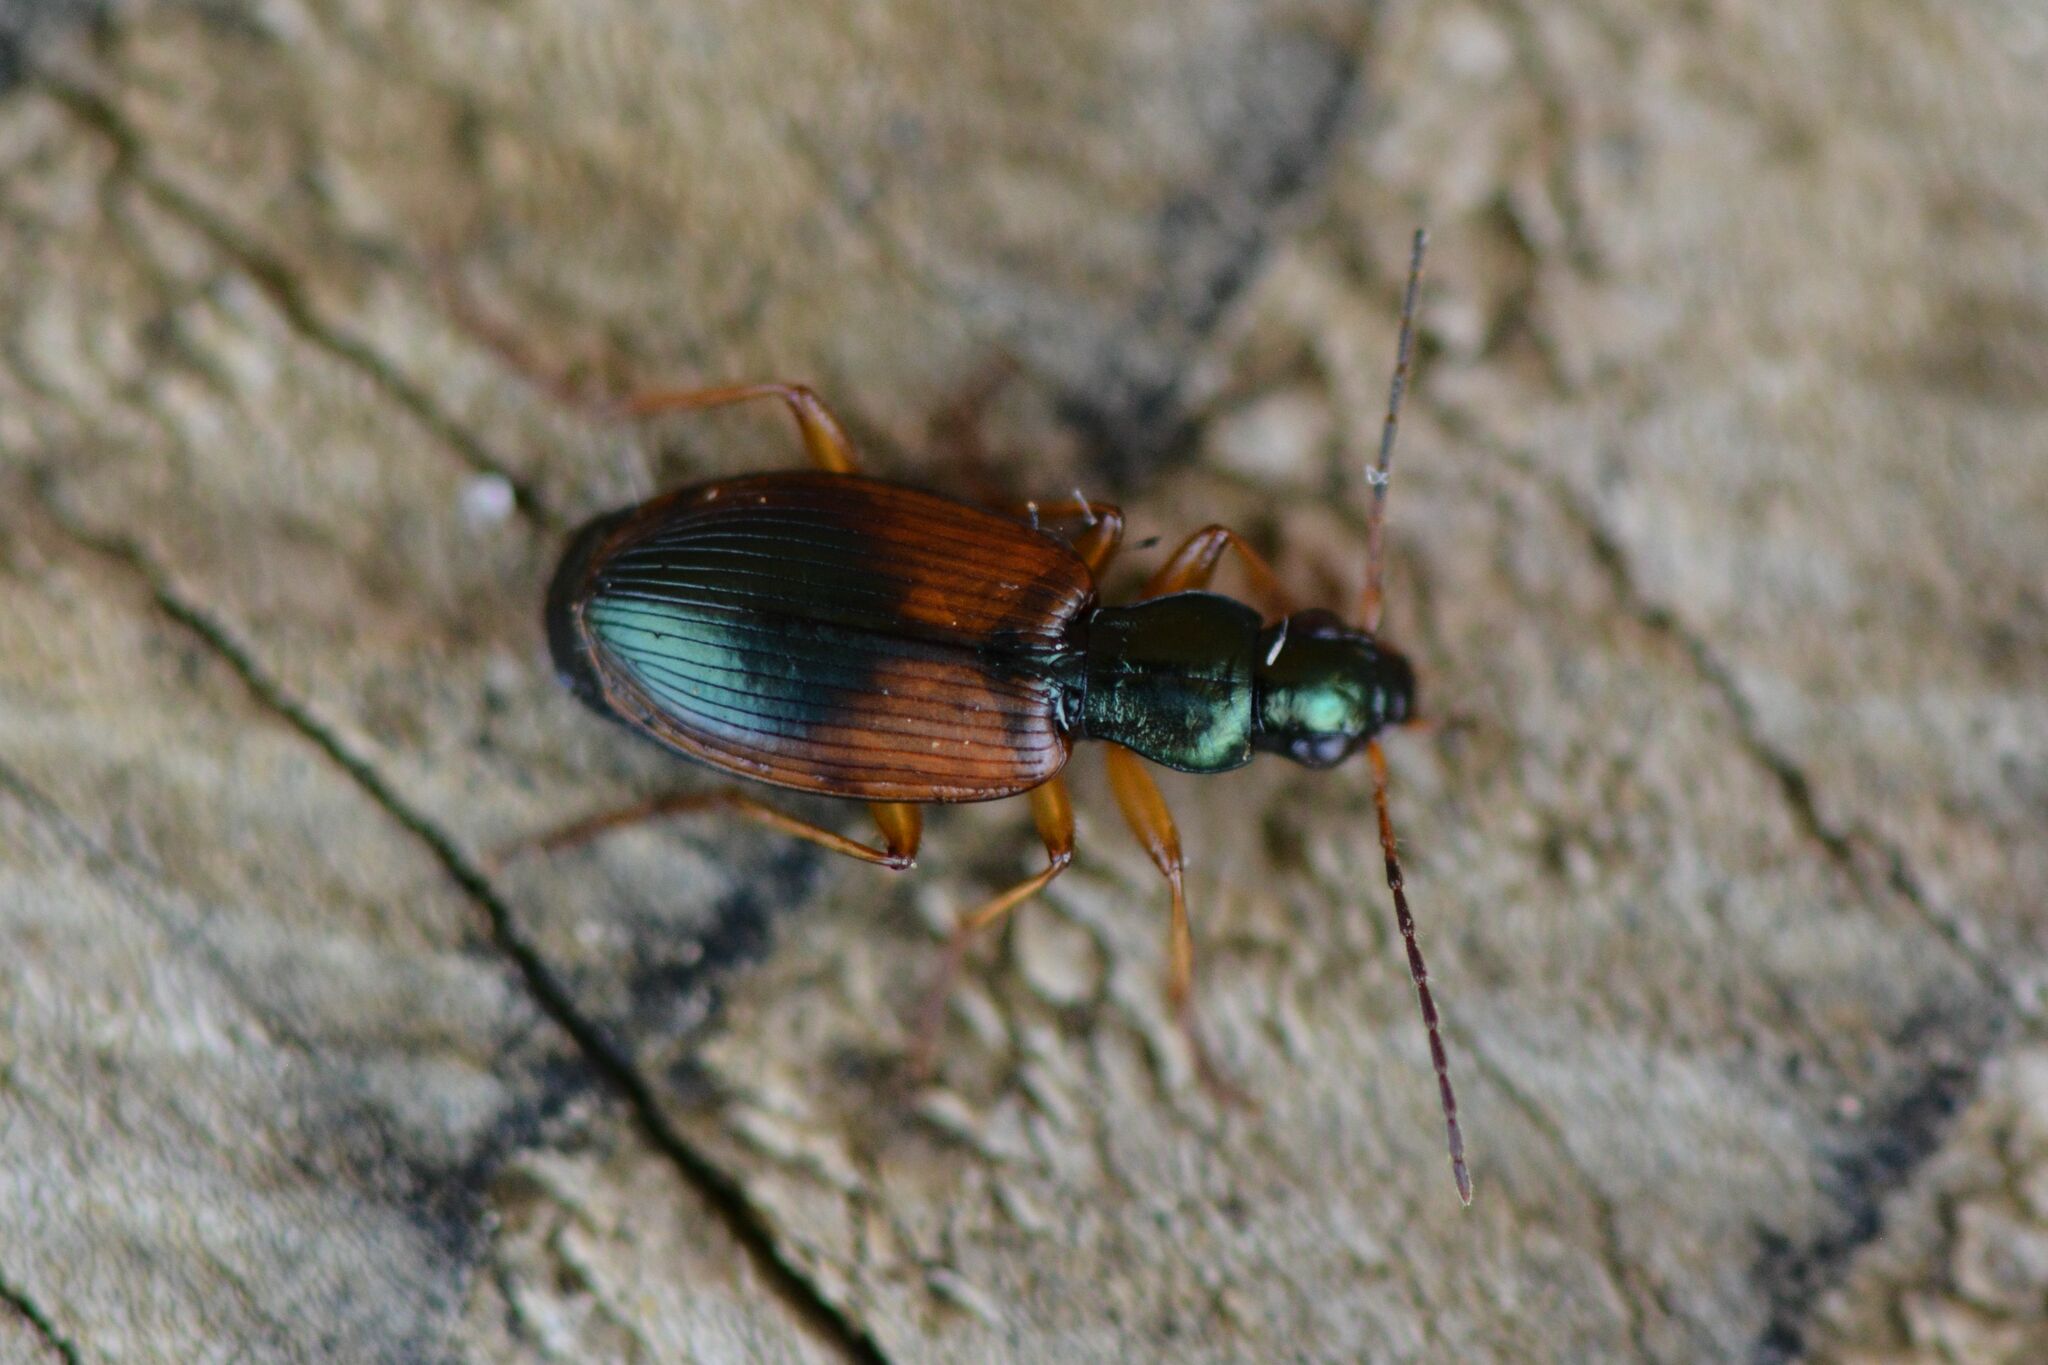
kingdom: Animalia
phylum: Arthropoda
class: Insecta
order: Coleoptera
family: Carabidae
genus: Anchomenus
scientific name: Anchomenus dorsalis
